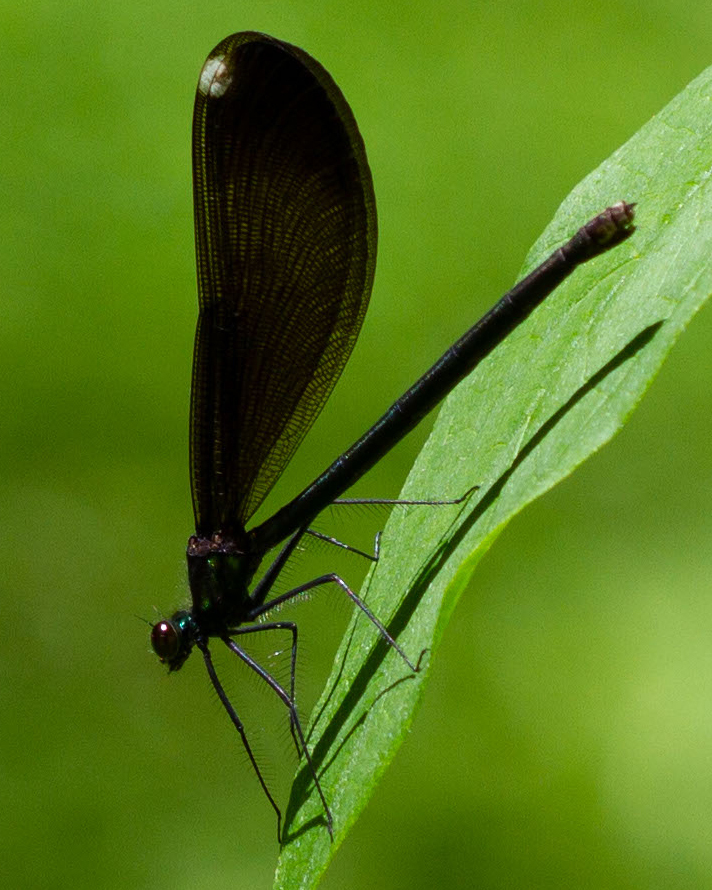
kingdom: Animalia
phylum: Arthropoda
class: Insecta
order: Odonata
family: Calopterygidae
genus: Calopteryx
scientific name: Calopteryx maculata
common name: Ebony jewelwing
